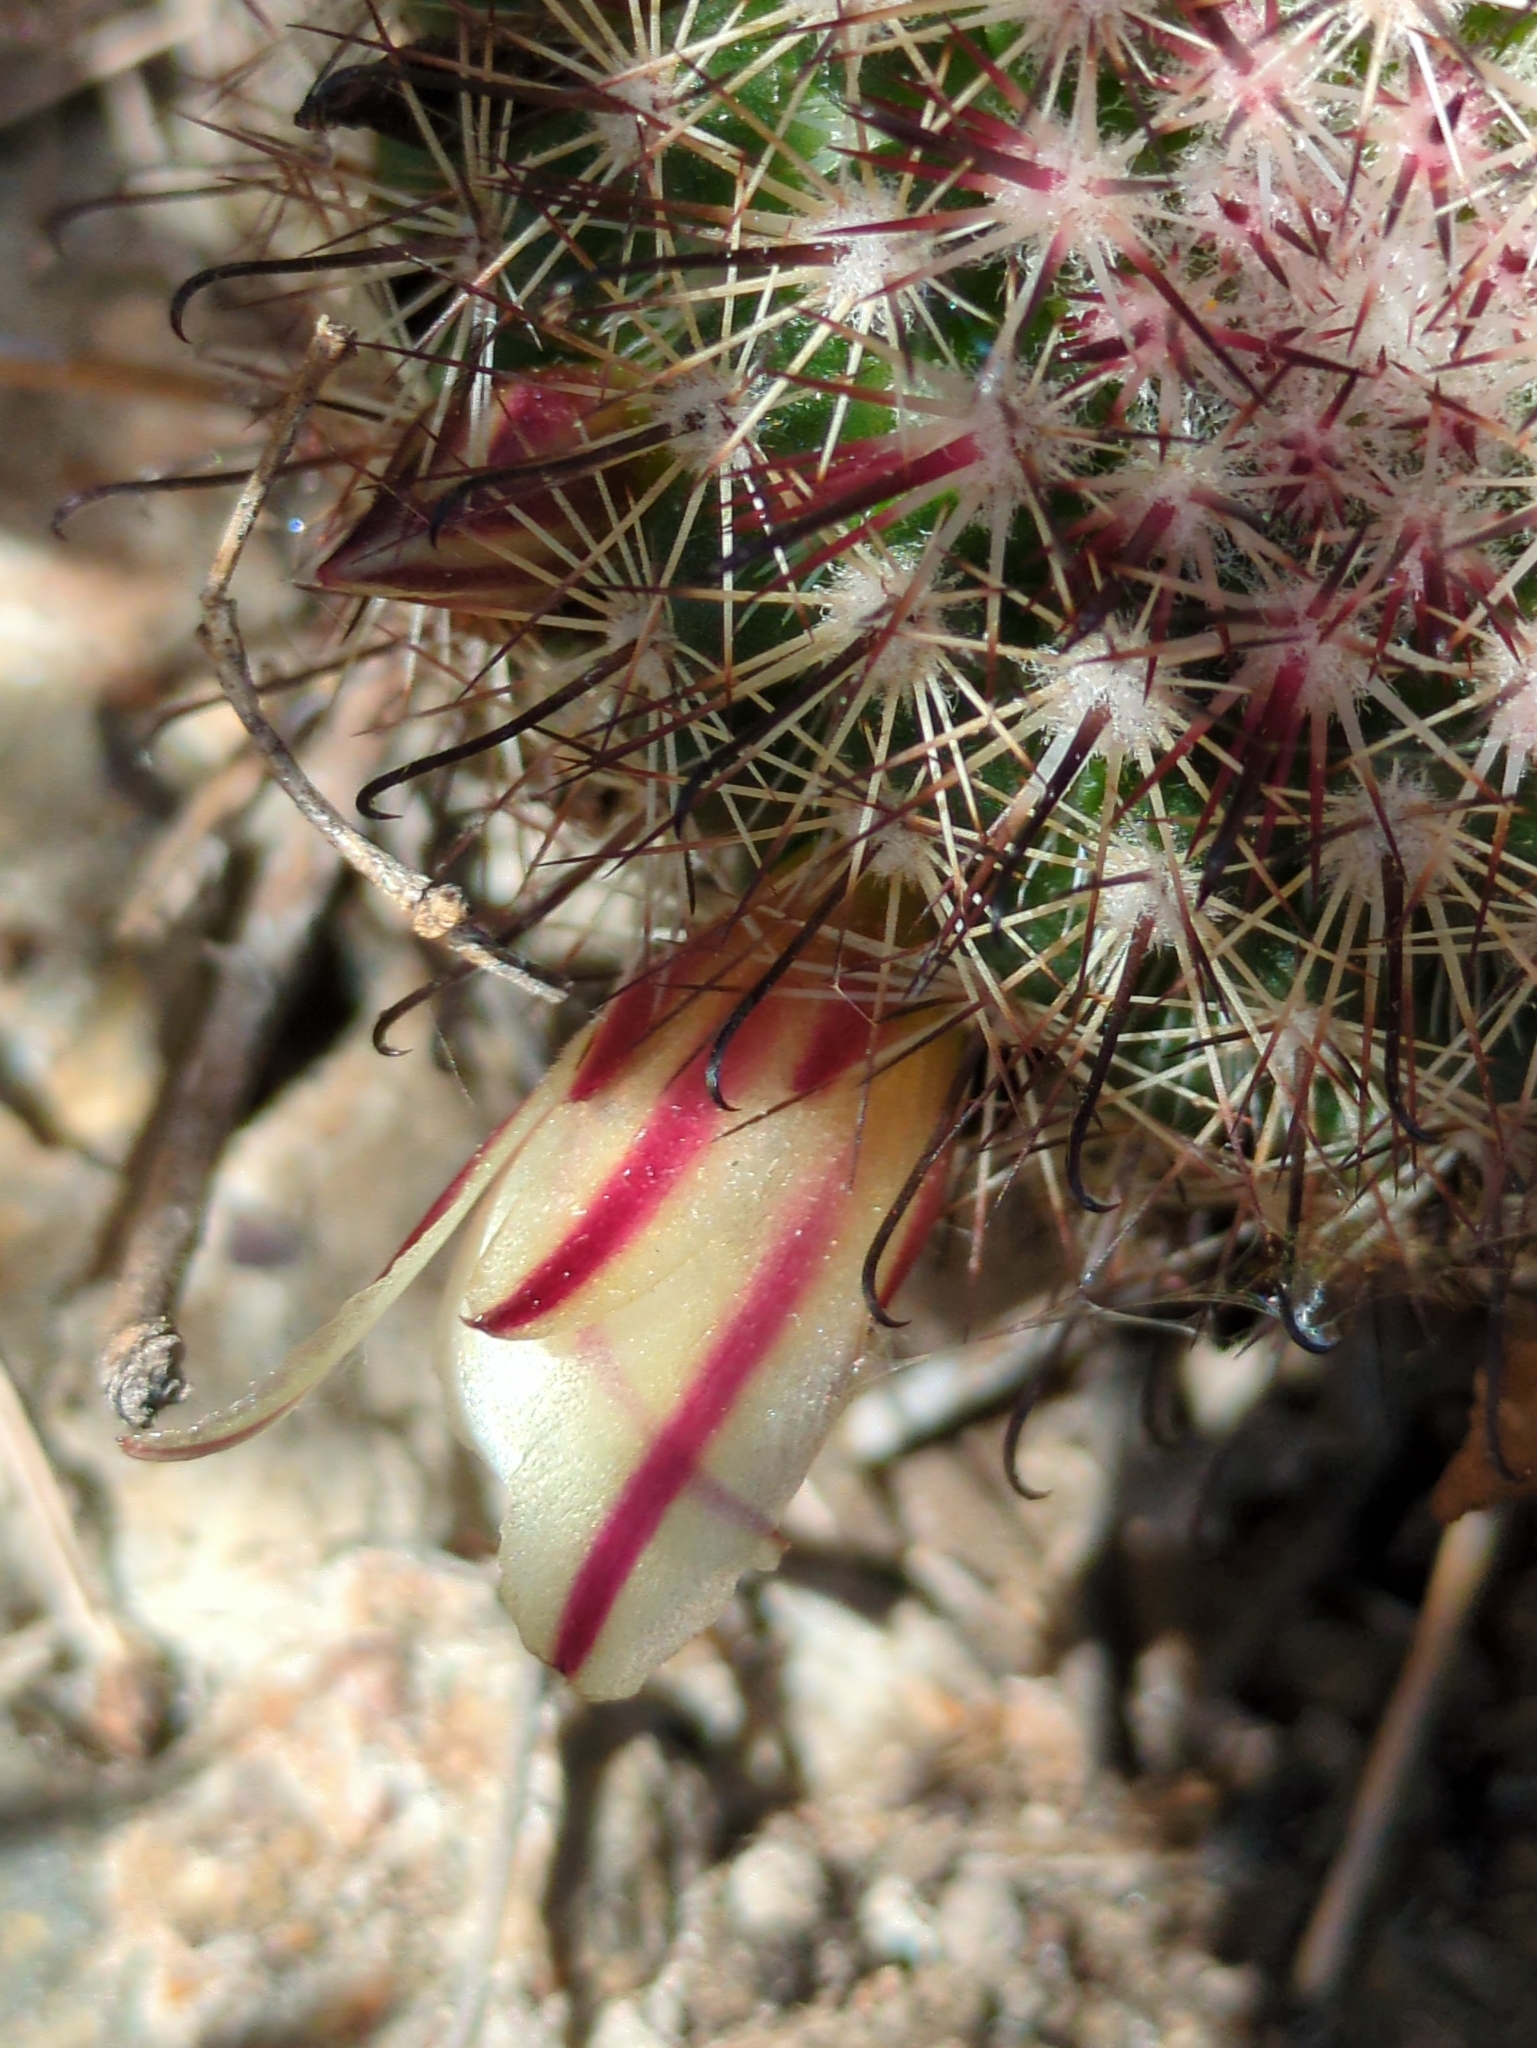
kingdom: Plantae
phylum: Tracheophyta
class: Magnoliopsida
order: Caryophyllales
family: Cactaceae
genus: Cochemiea
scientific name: Cochemiea dioica
